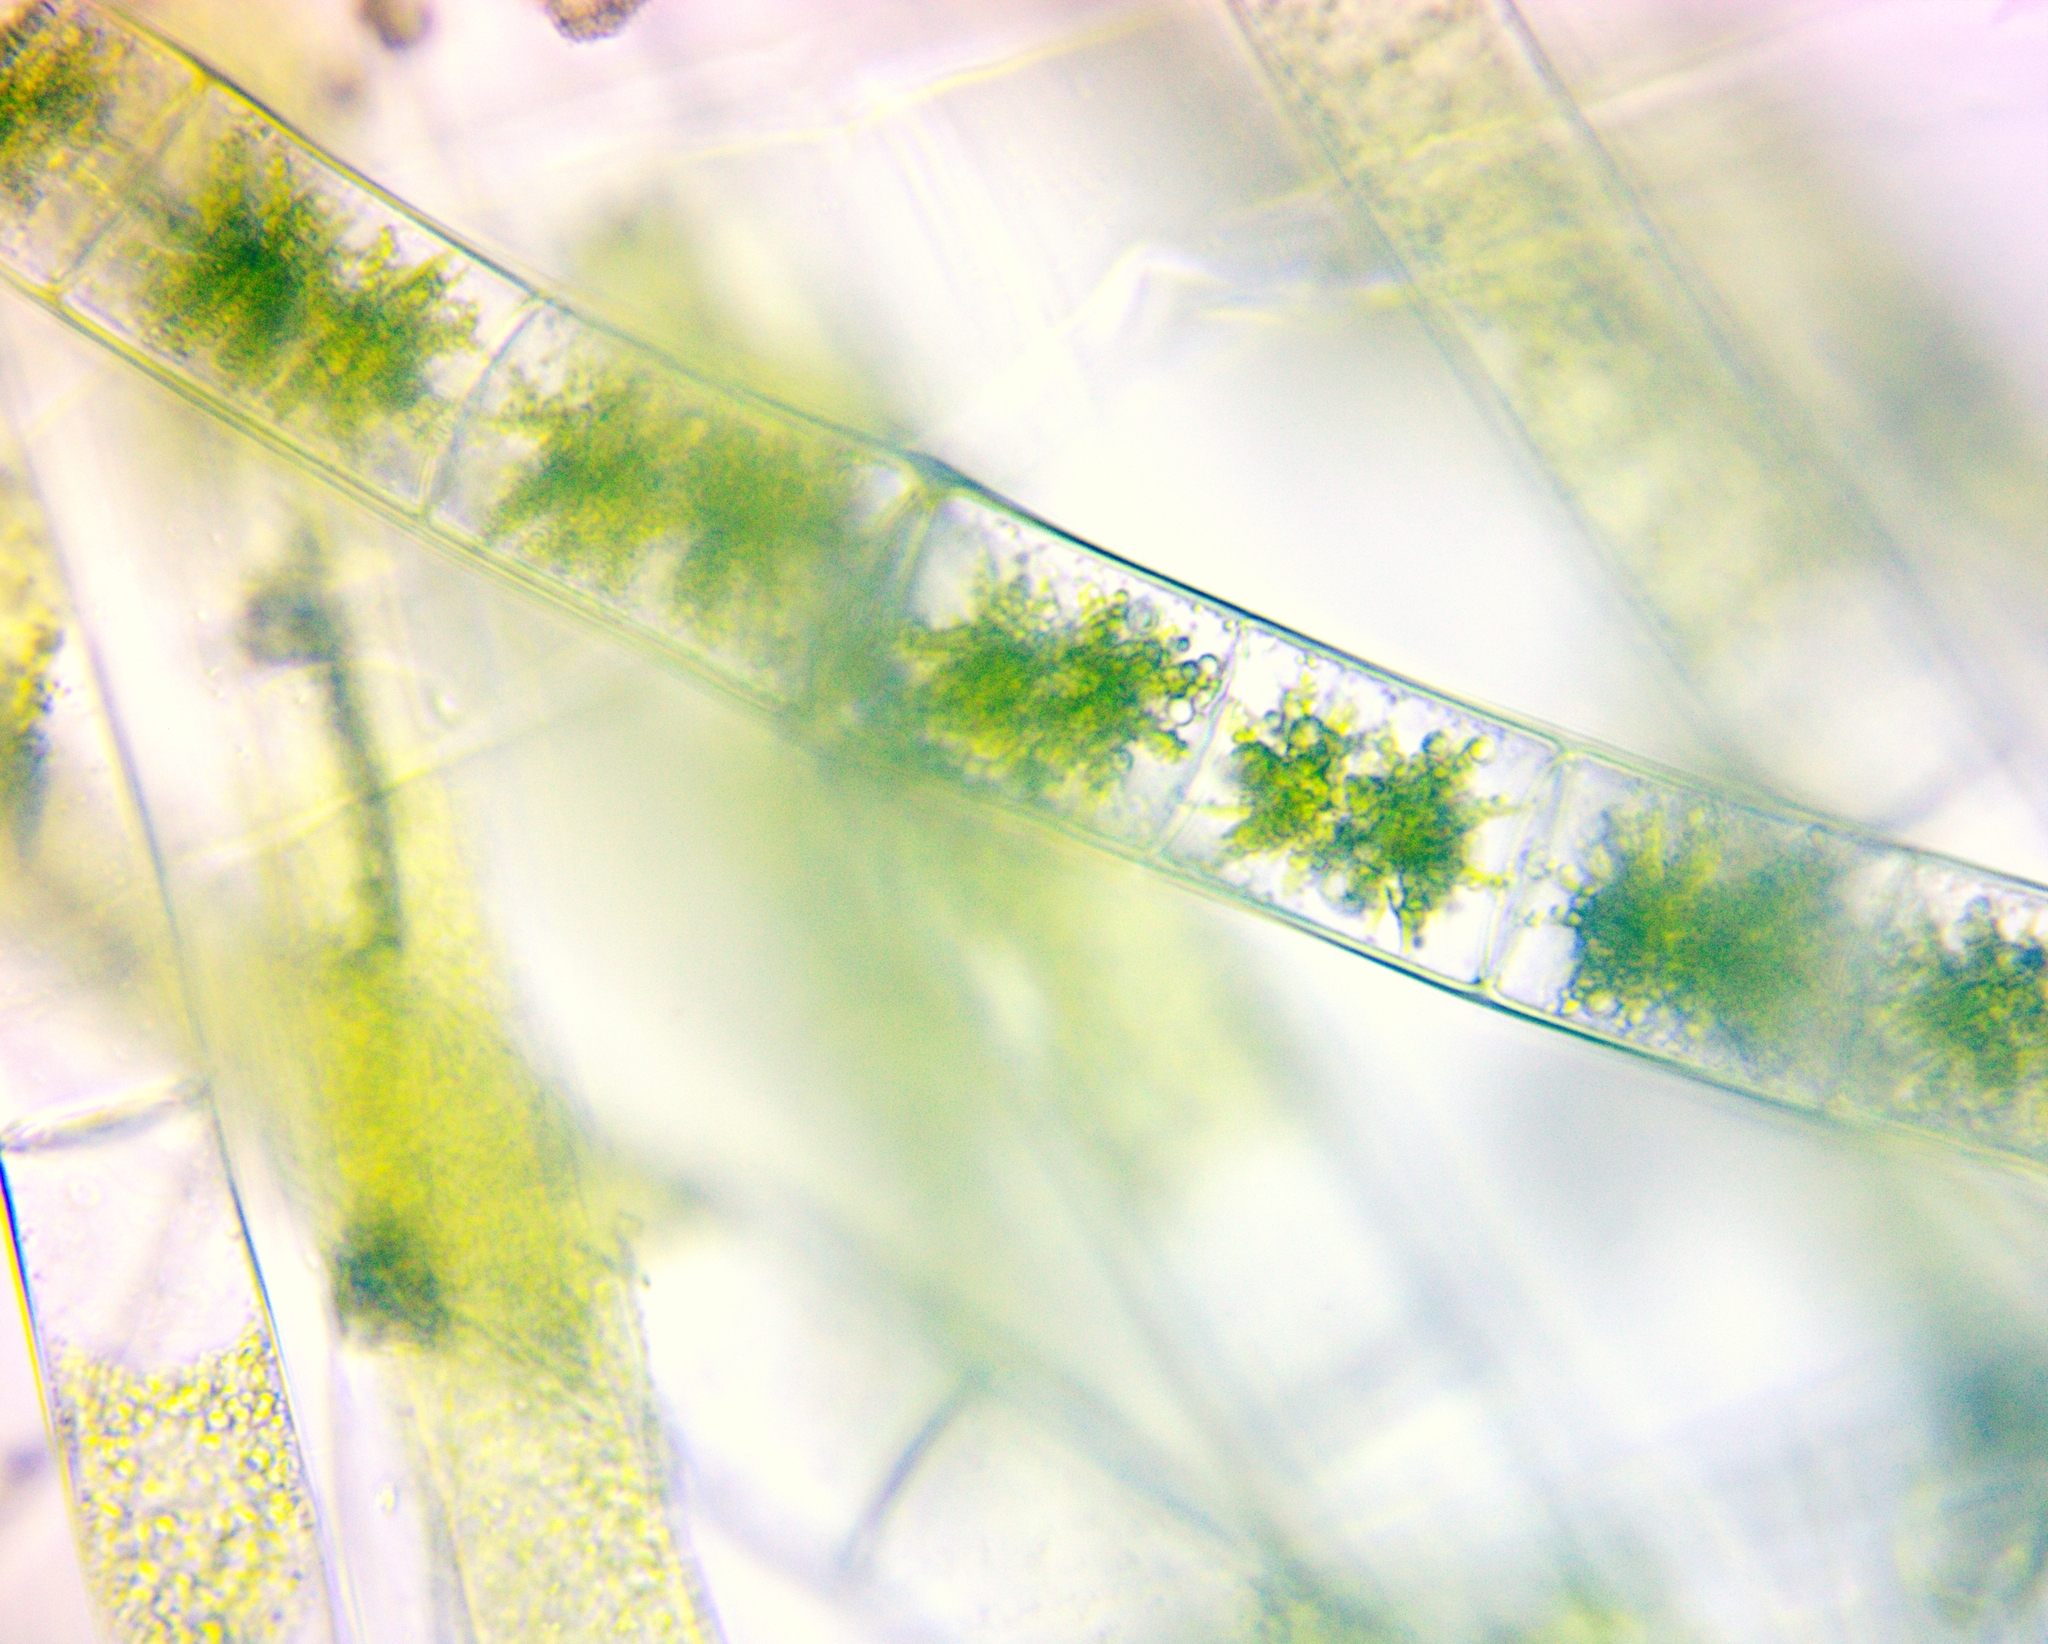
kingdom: Plantae
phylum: Charophyta
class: Zygnematophyceae
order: Zygnematales
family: Zygnemataceae
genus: Zygnema
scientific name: Zygnema
